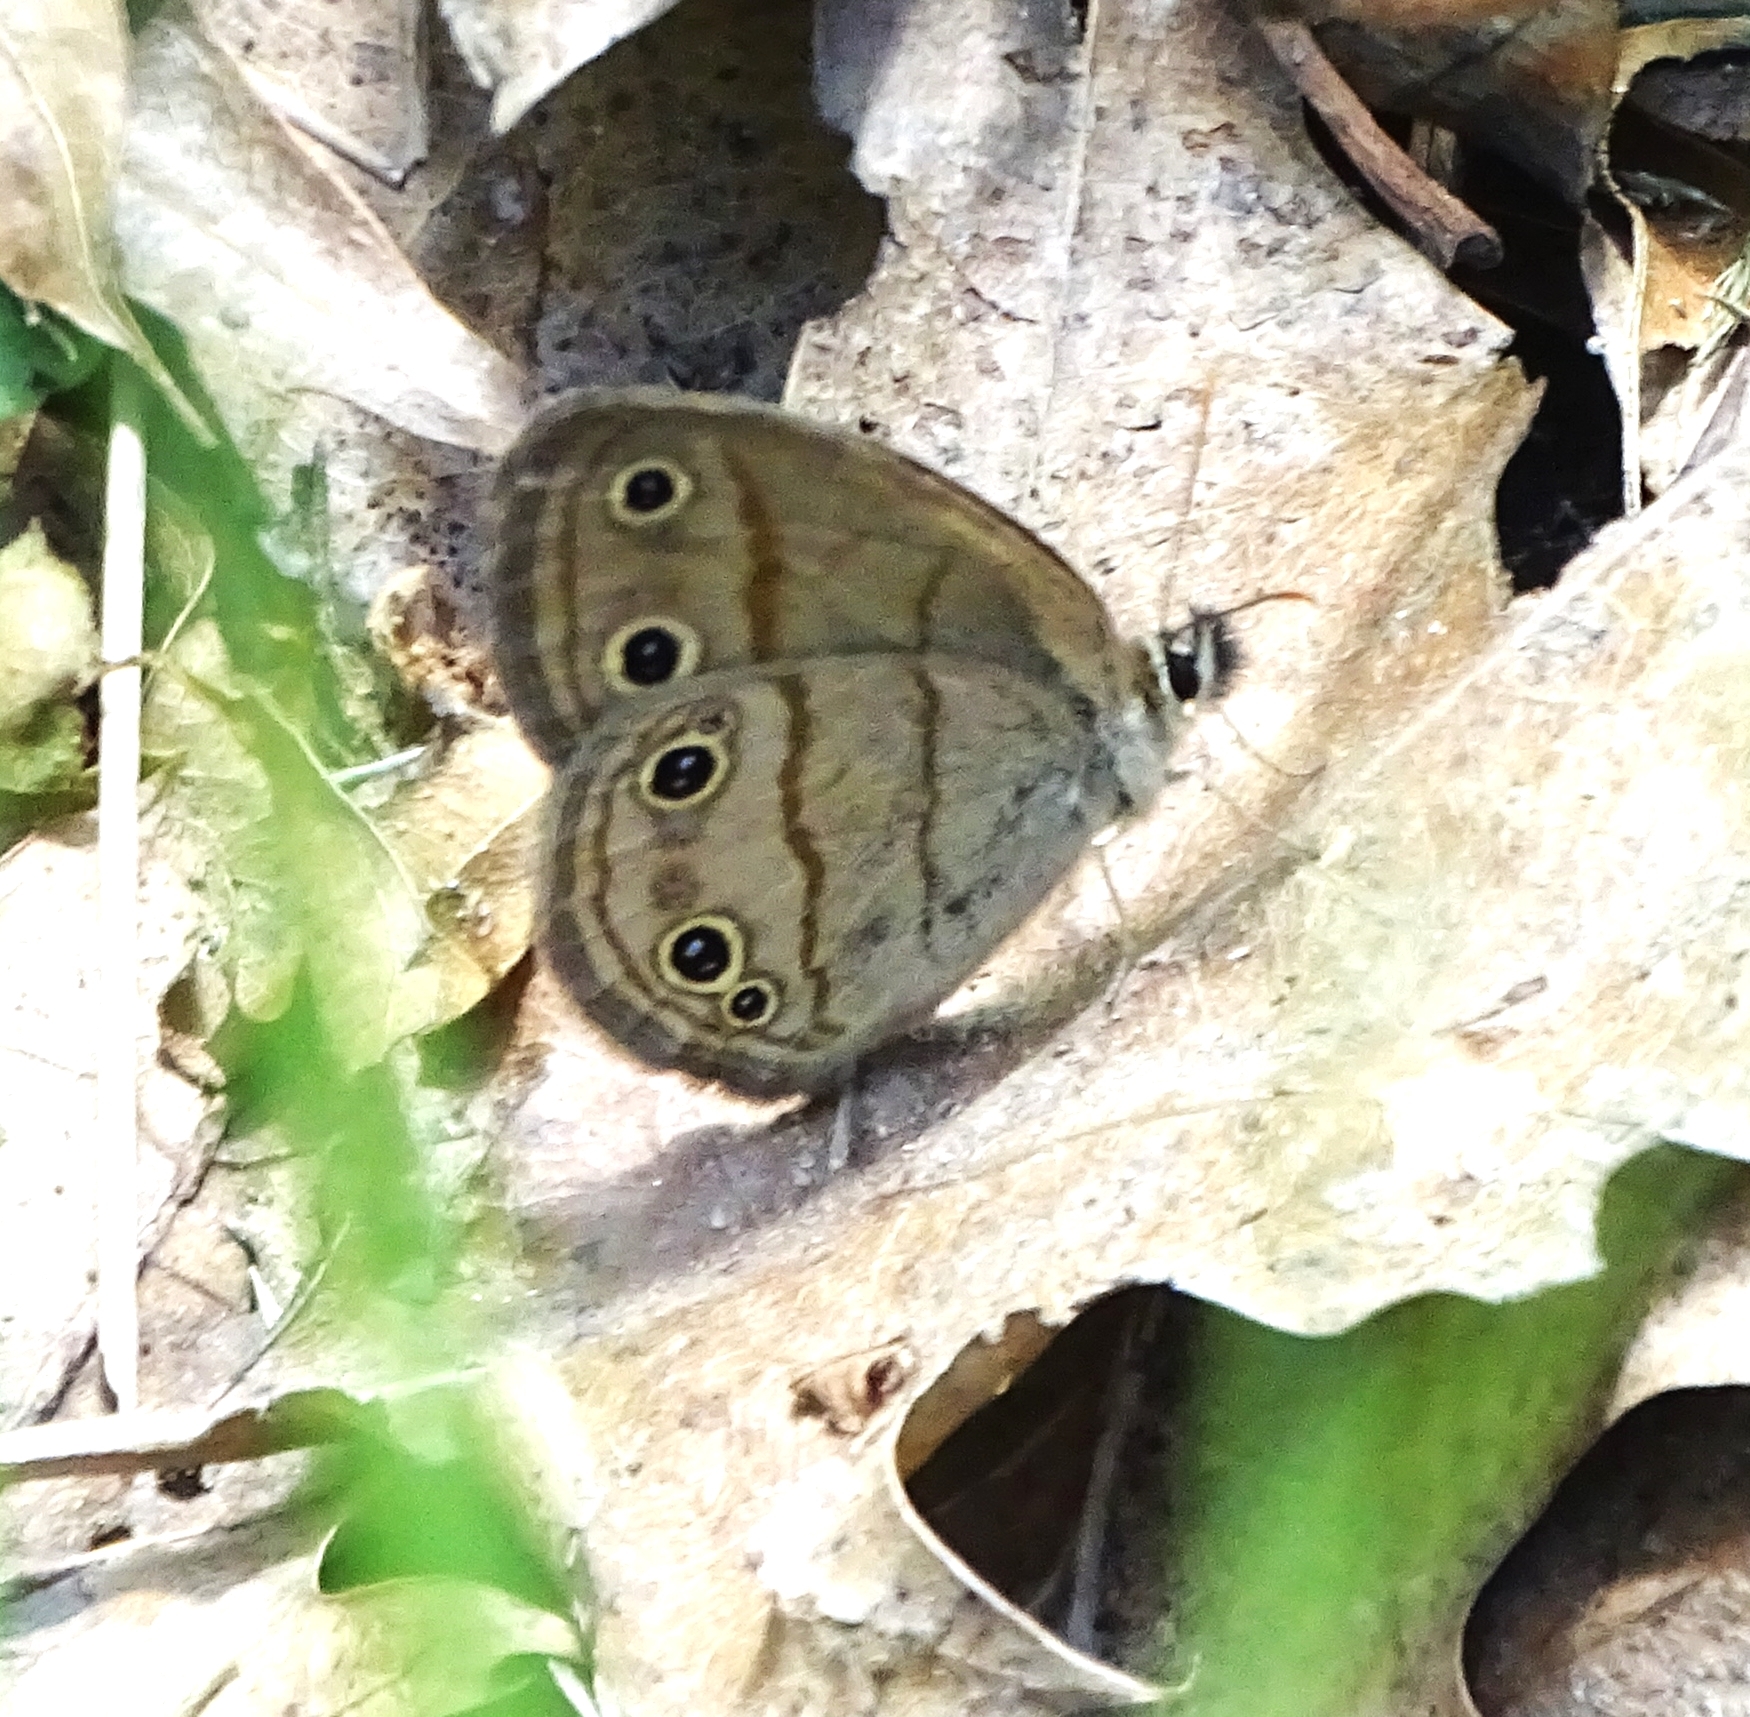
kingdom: Animalia
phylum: Arthropoda
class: Insecta
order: Lepidoptera
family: Nymphalidae
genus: Euptychia
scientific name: Euptychia cymela
